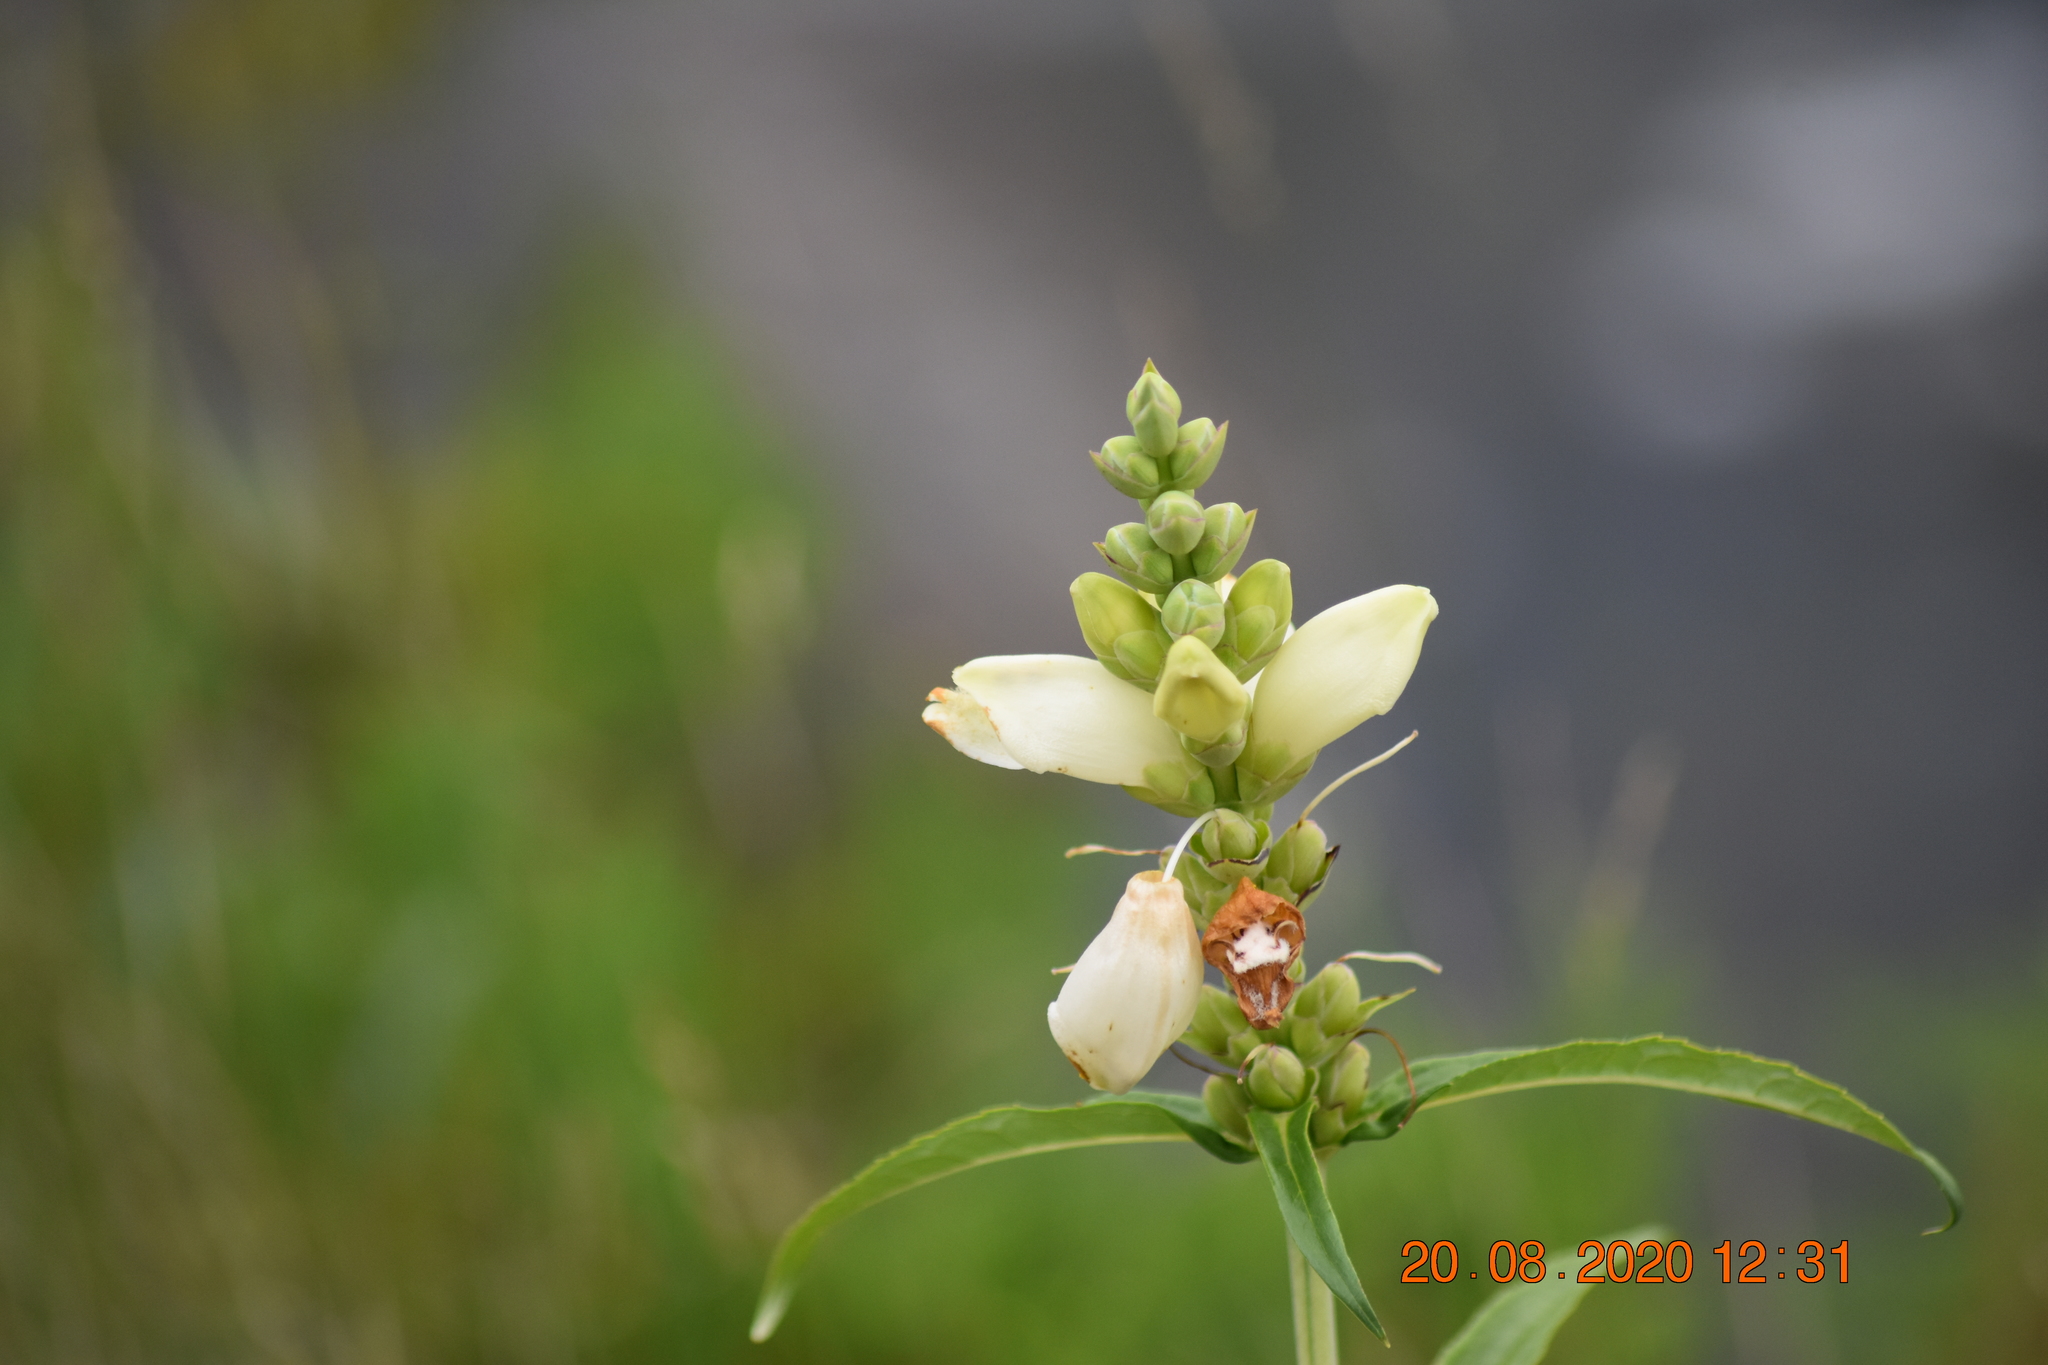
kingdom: Plantae
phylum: Tracheophyta
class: Magnoliopsida
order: Lamiales
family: Plantaginaceae
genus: Chelone
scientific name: Chelone glabra
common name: Snakehead
